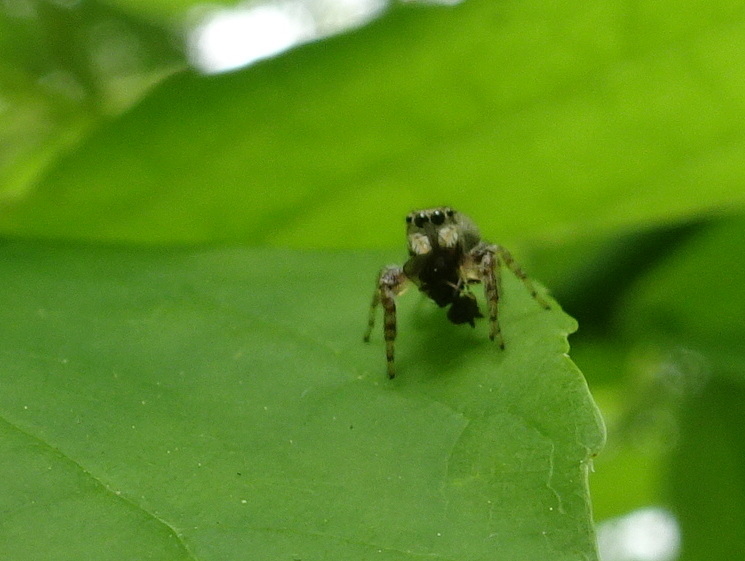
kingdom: Animalia
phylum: Arthropoda
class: Arachnida
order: Araneae
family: Salticidae
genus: Pelegrina
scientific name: Pelegrina proterva
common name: Common white-cheeked jumping spider
